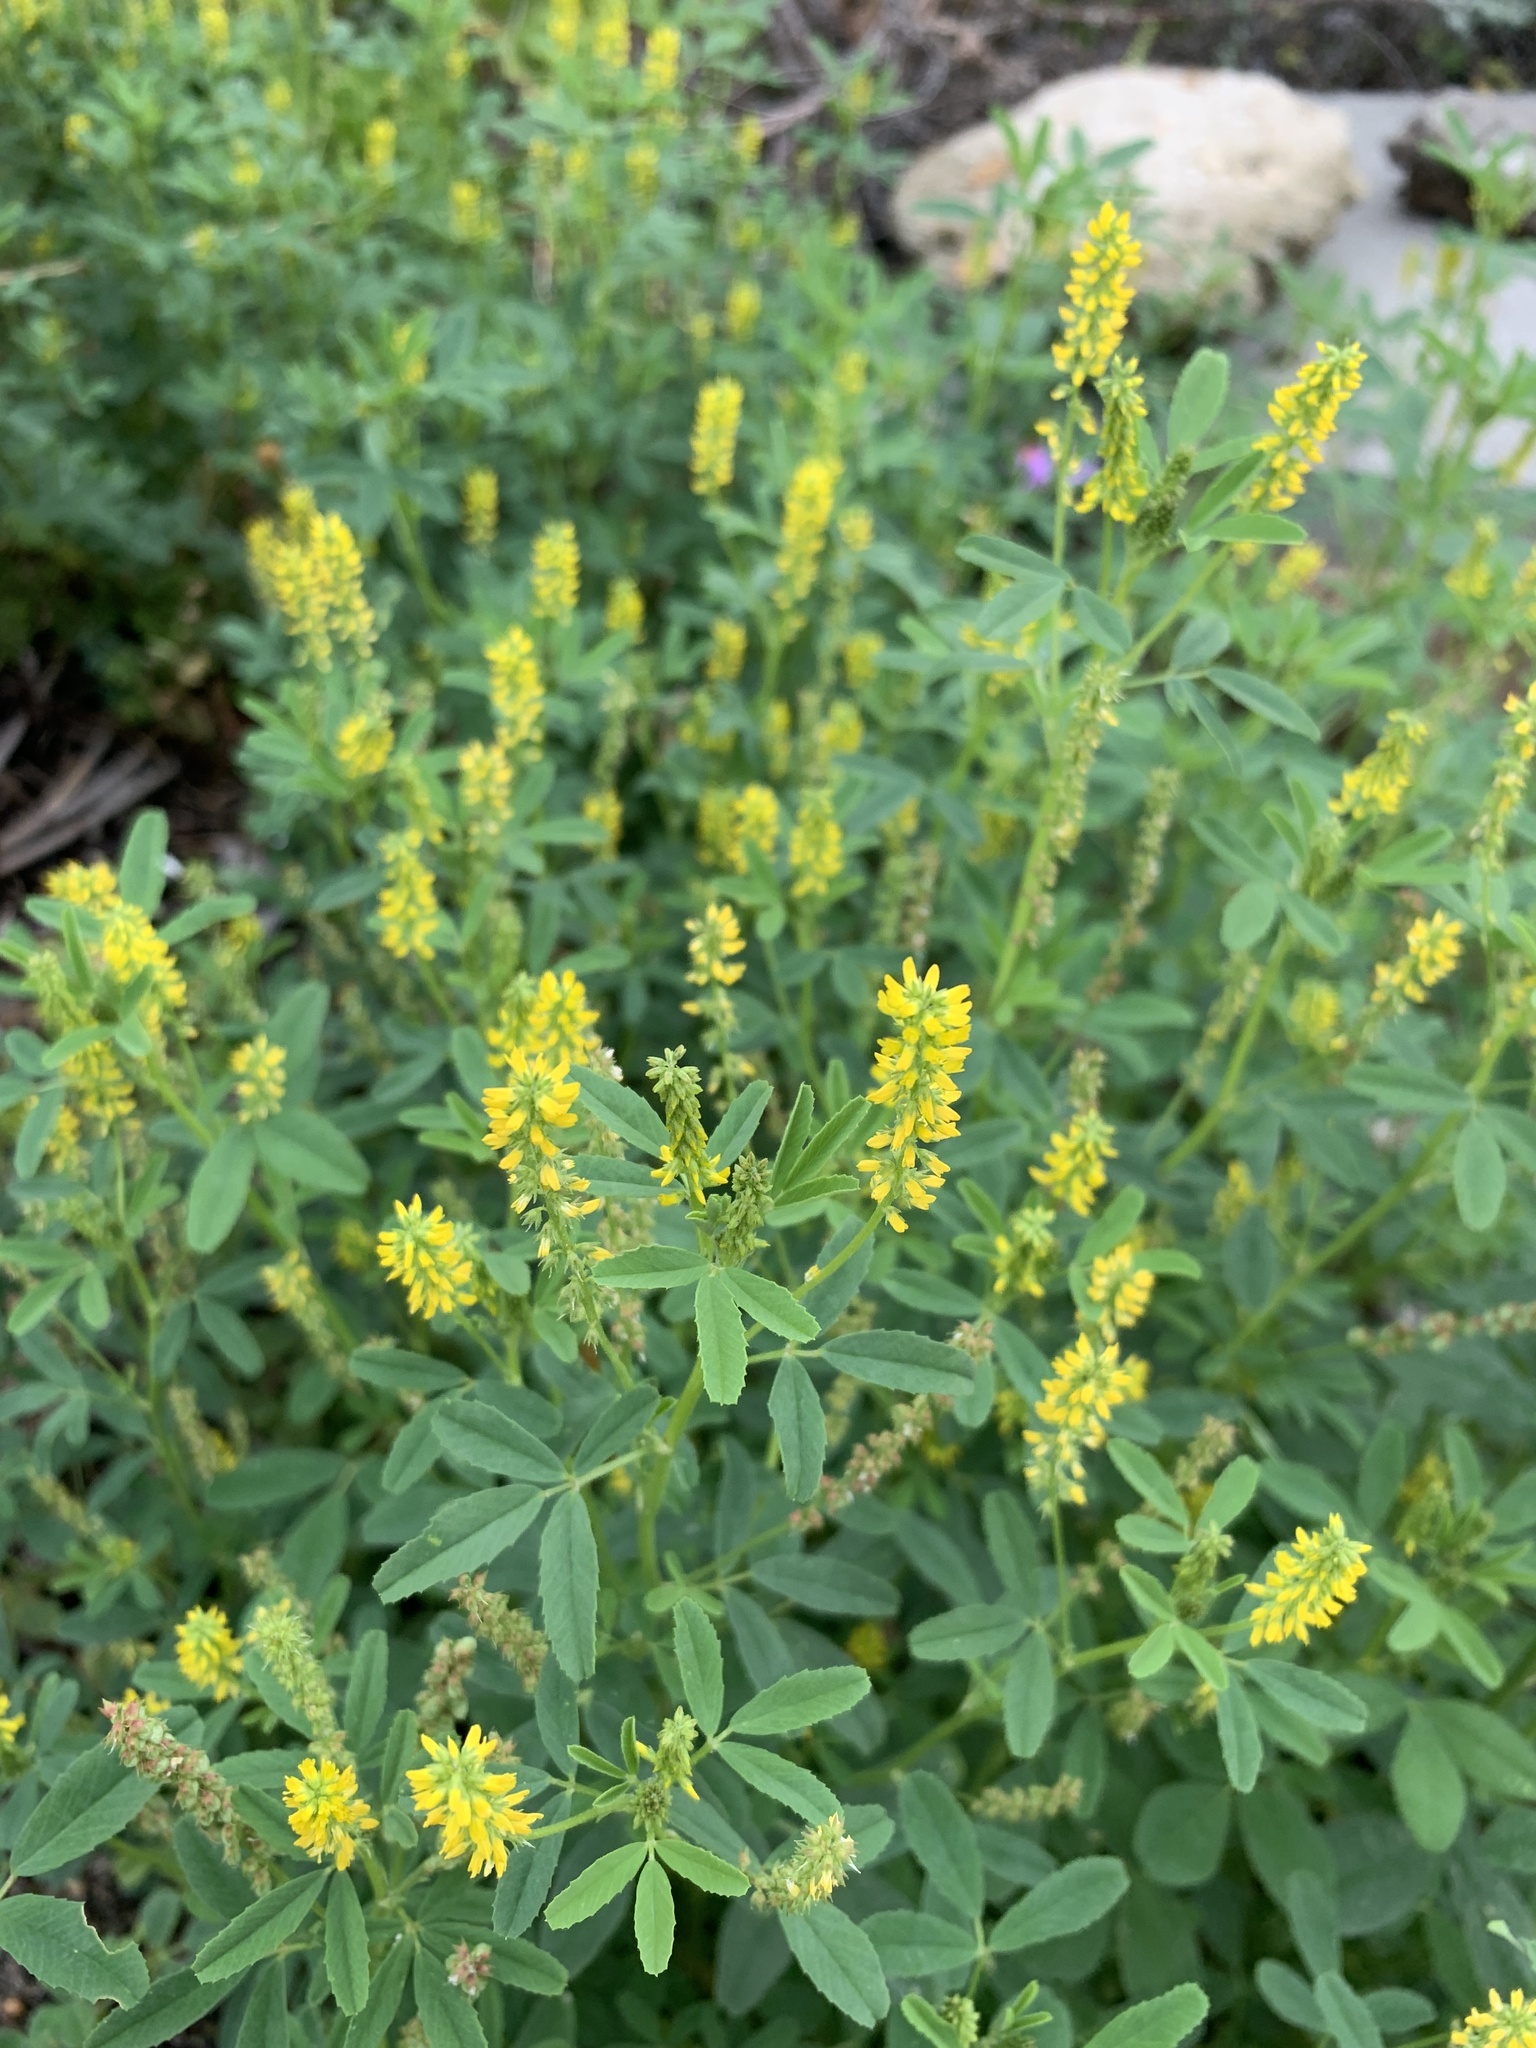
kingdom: Plantae
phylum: Tracheophyta
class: Magnoliopsida
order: Fabales
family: Fabaceae
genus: Melilotus
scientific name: Melilotus indicus
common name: Small melilot
